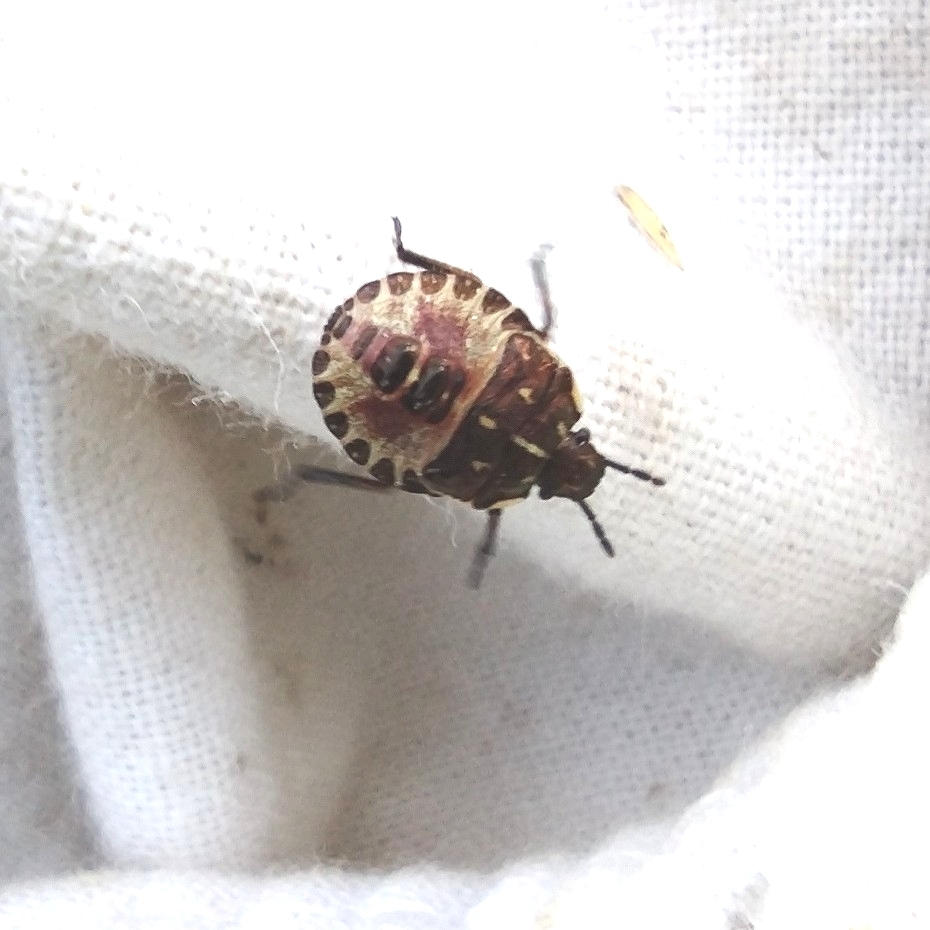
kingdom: Animalia
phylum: Arthropoda
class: Insecta
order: Hemiptera
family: Pentatomidae
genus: Carpocoris
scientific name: Carpocoris purpureipennis
